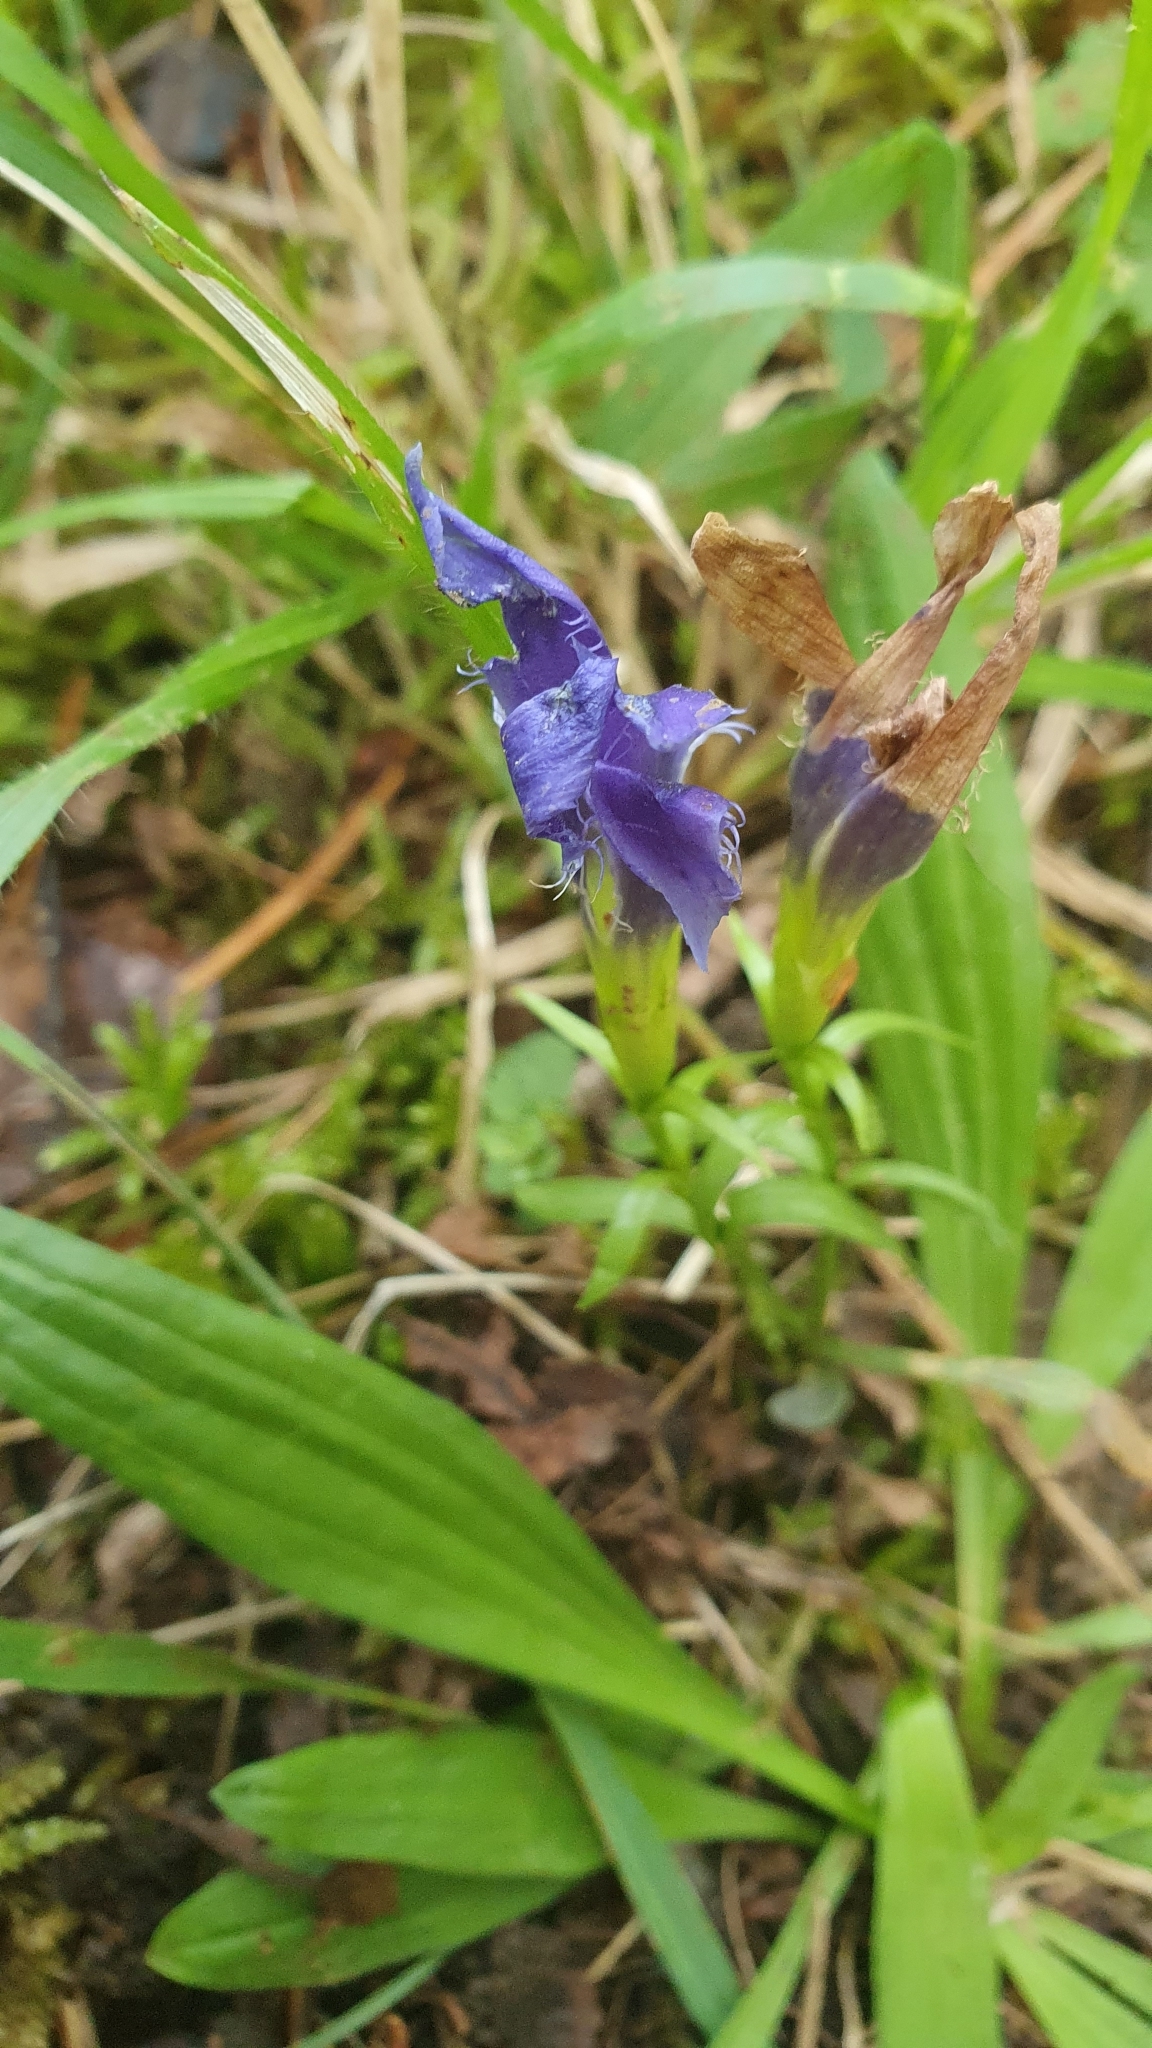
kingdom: Plantae
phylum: Tracheophyta
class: Magnoliopsida
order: Gentianales
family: Gentianaceae
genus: Gentianopsis
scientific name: Gentianopsis ciliata
